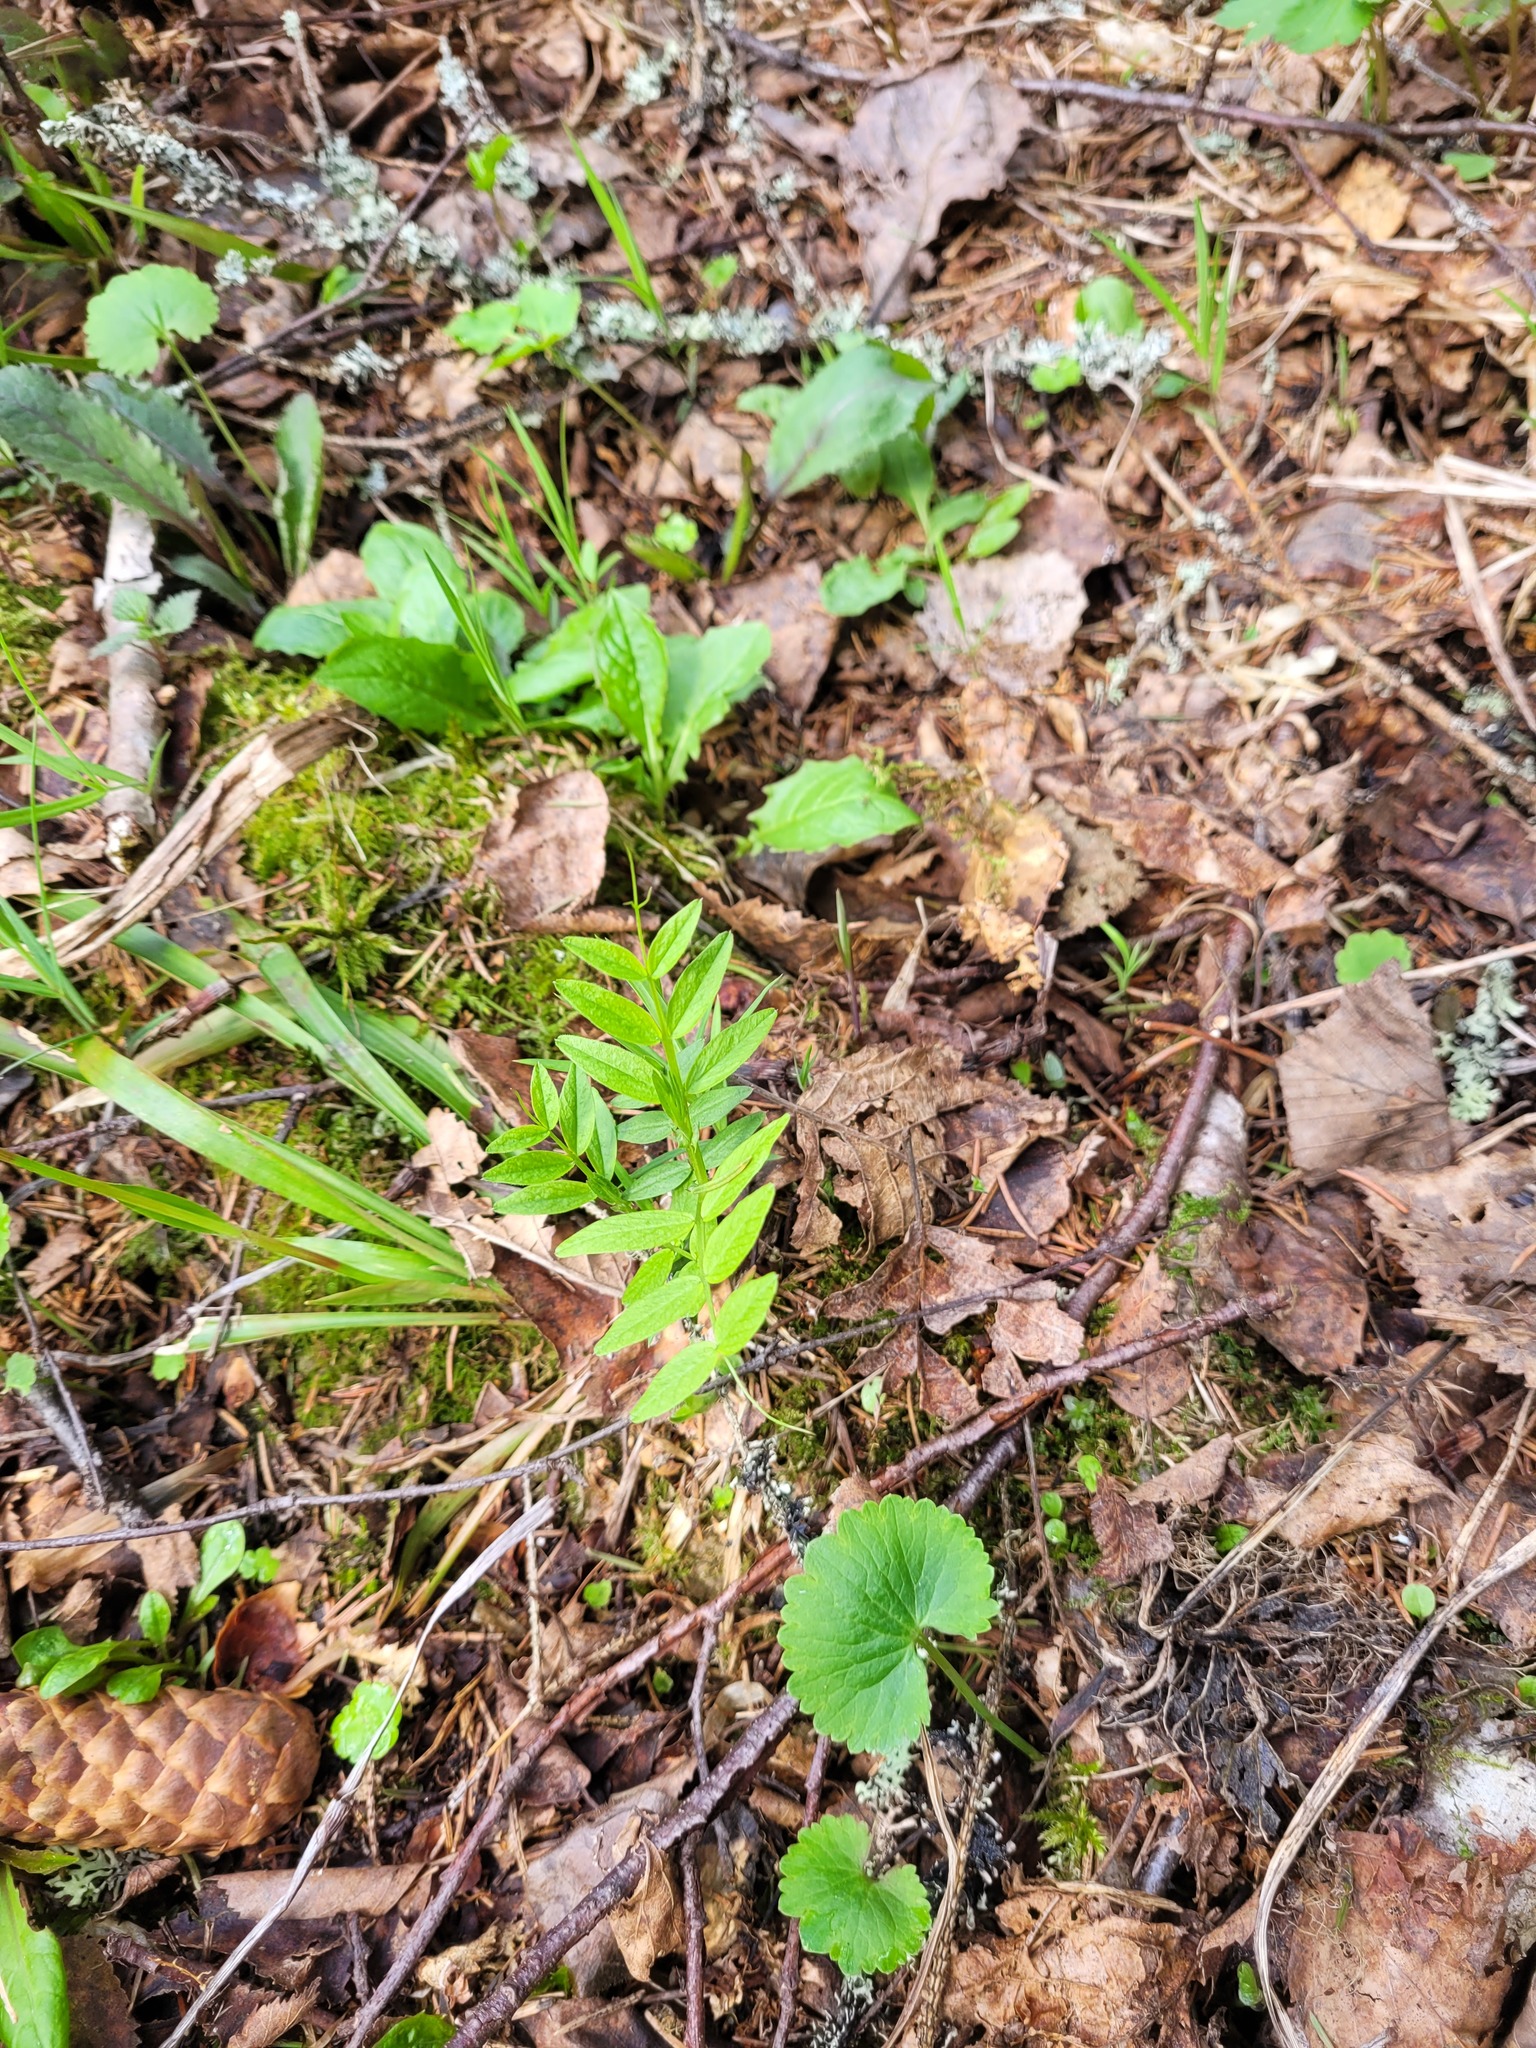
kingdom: Plantae
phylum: Tracheophyta
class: Magnoliopsida
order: Fabales
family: Fabaceae
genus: Vicia
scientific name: Vicia sepium
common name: Bush vetch
